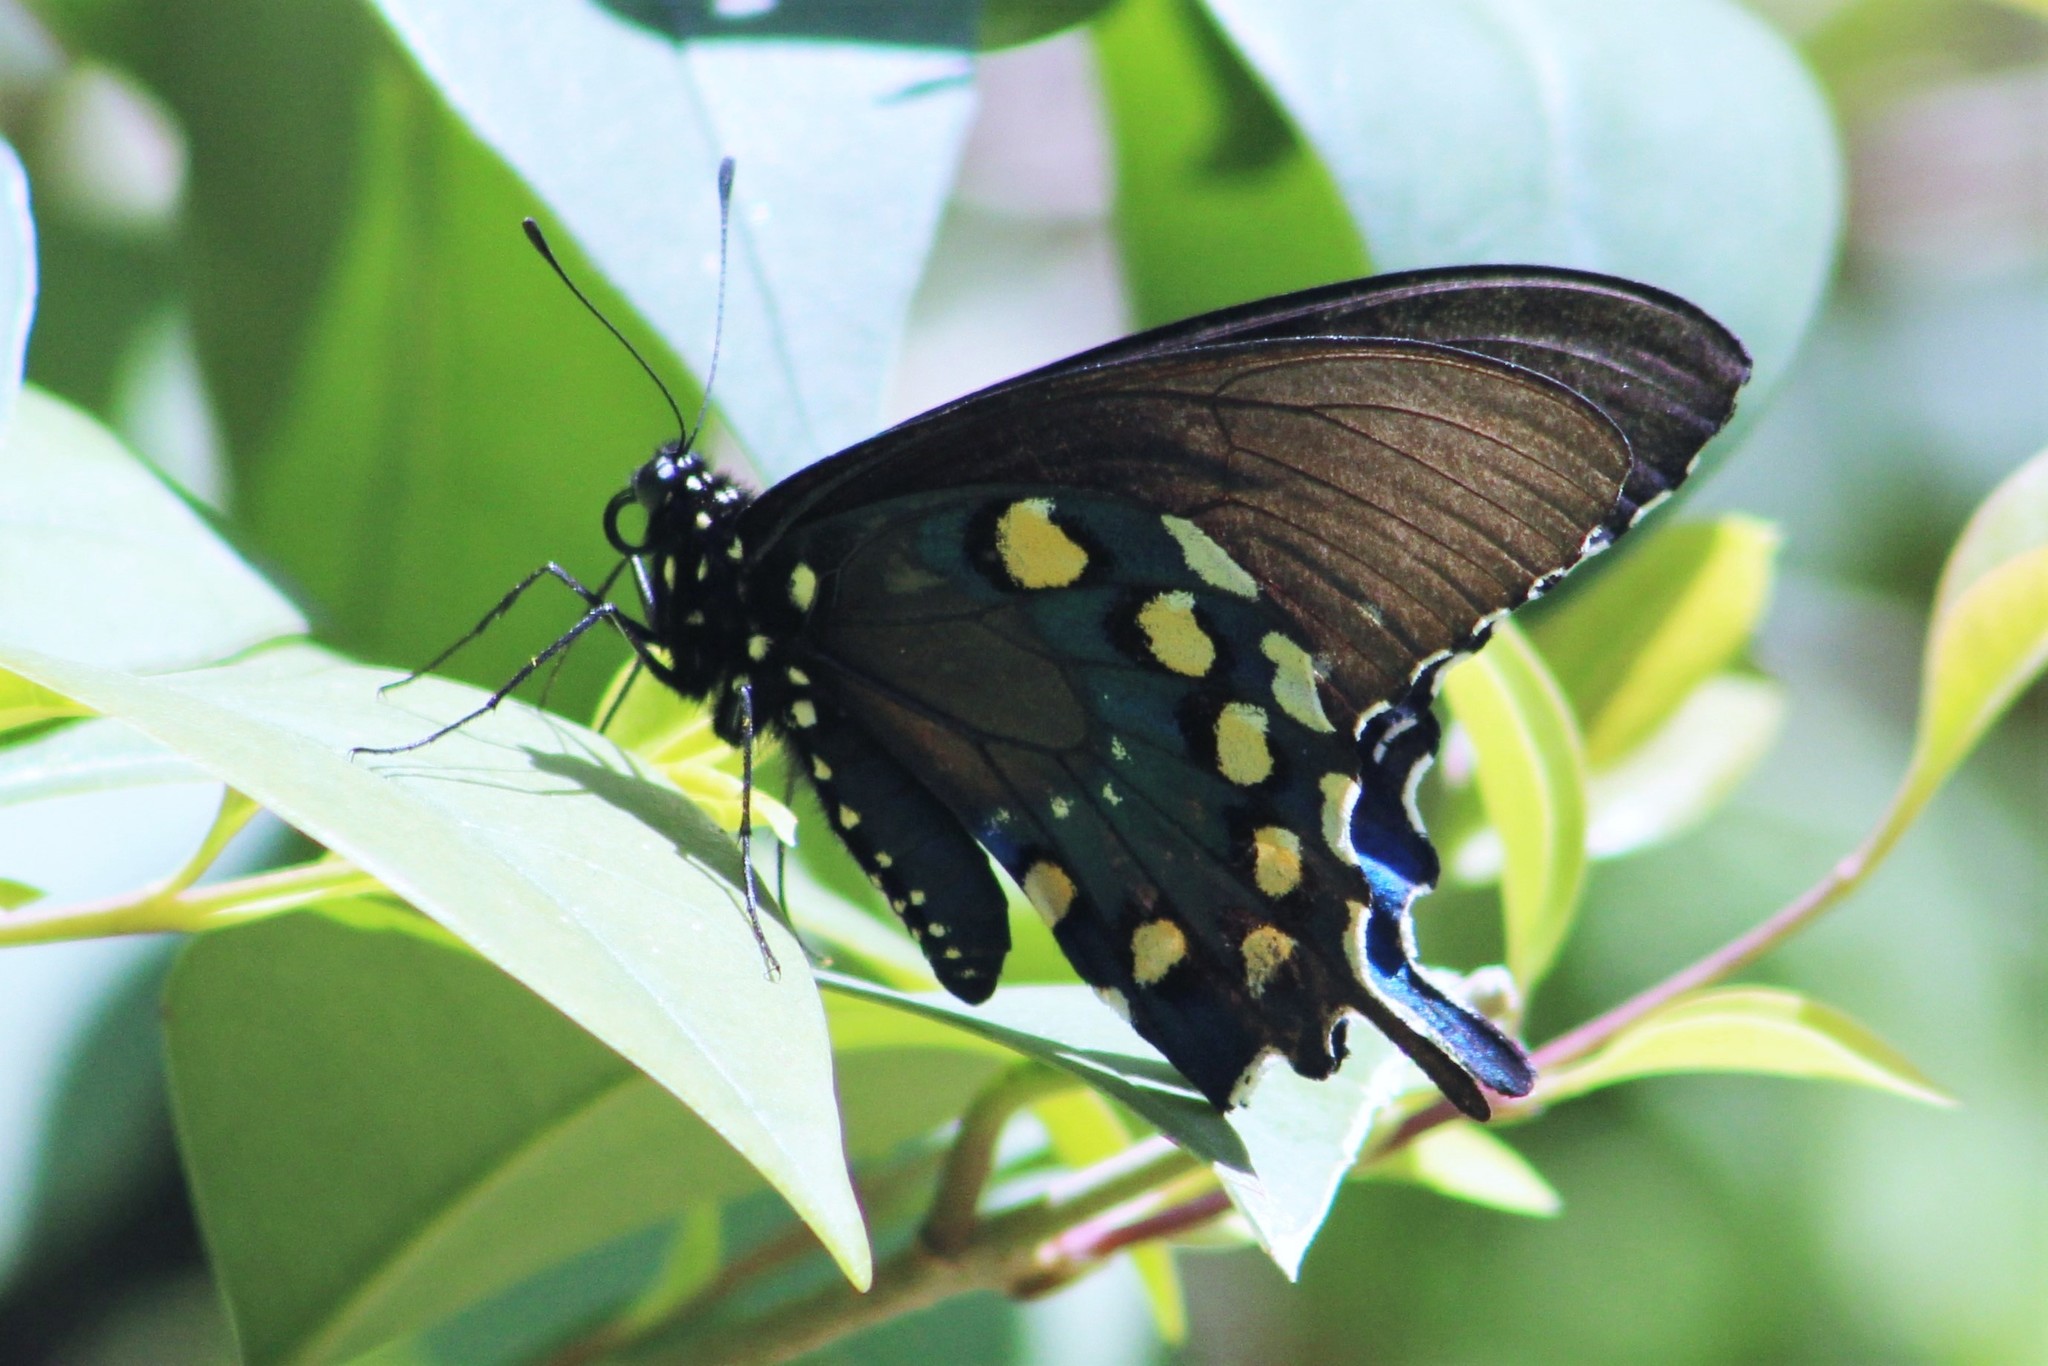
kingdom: Animalia
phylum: Arthropoda
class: Insecta
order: Lepidoptera
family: Papilionidae
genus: Battus
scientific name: Battus philenor
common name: Pipevine swallowtail
